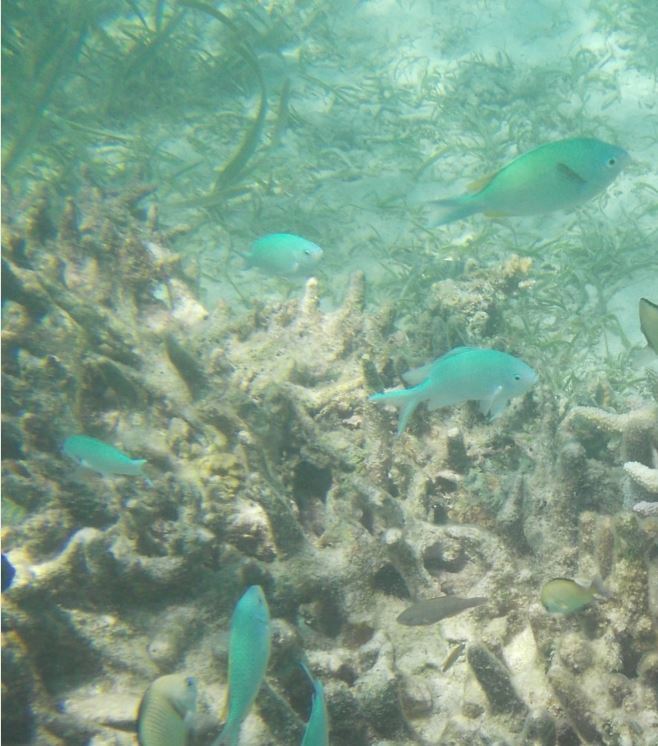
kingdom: Animalia
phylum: Chordata
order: Perciformes
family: Pomacentridae
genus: Chromis
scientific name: Chromis viridis
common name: Blue-green chromis
